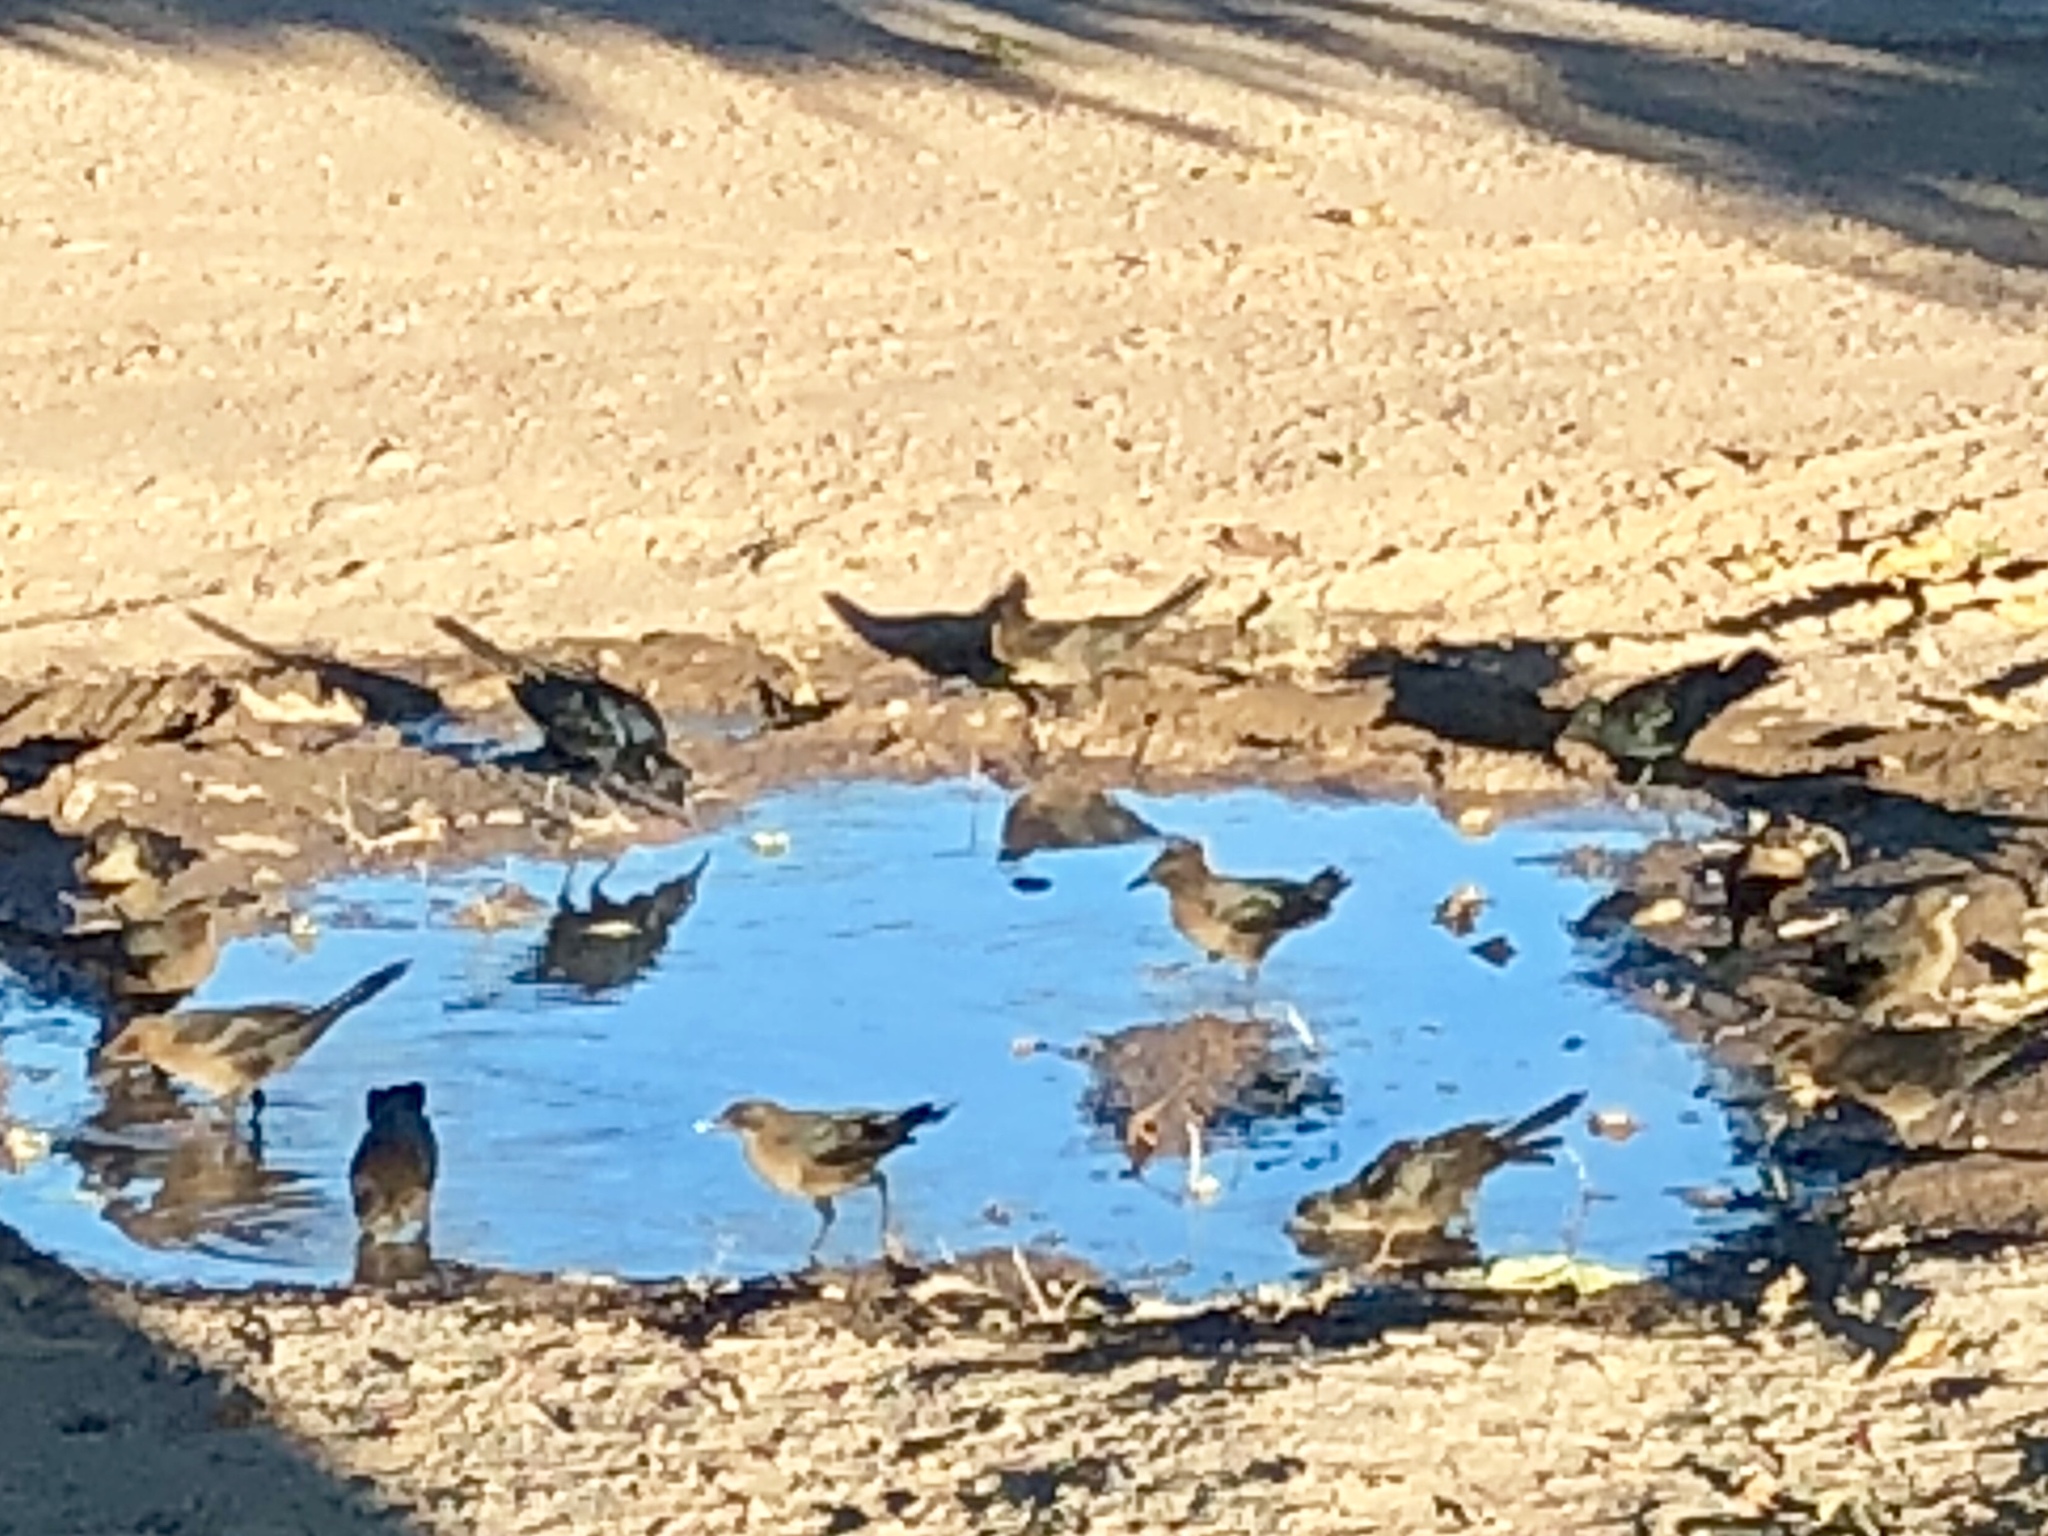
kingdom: Animalia
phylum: Chordata
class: Aves
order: Passeriformes
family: Icteridae
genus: Quiscalus
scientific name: Quiscalus mexicanus
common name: Great-tailed grackle
